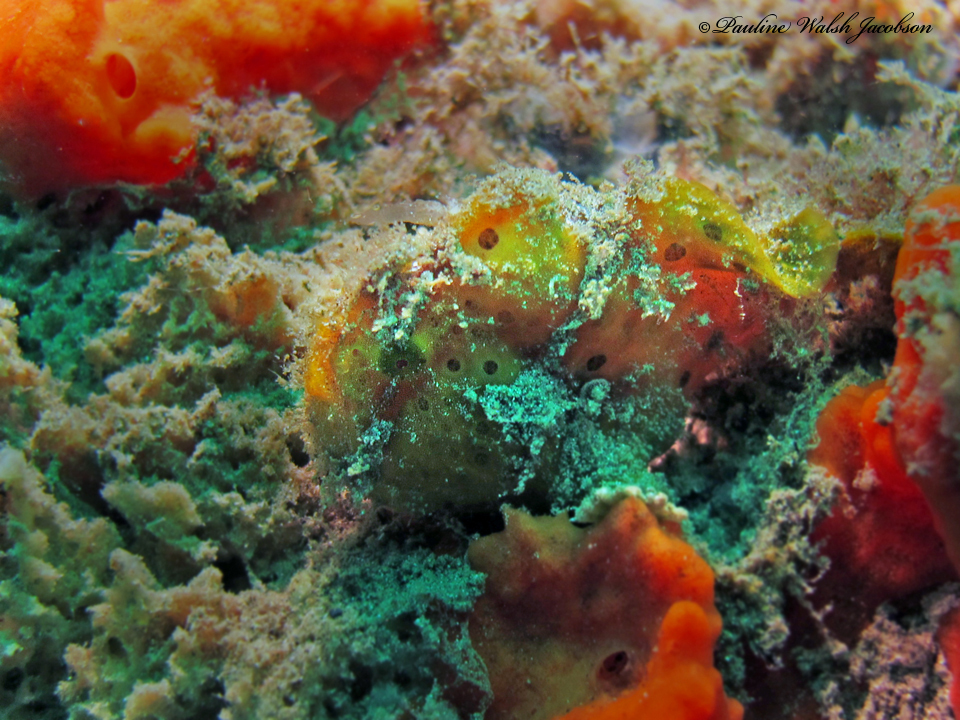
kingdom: Animalia
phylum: Chordata
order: Lophiiformes
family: Antennariidae
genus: Antennarius
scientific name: Antennarius pictus
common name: Painted frogfish
